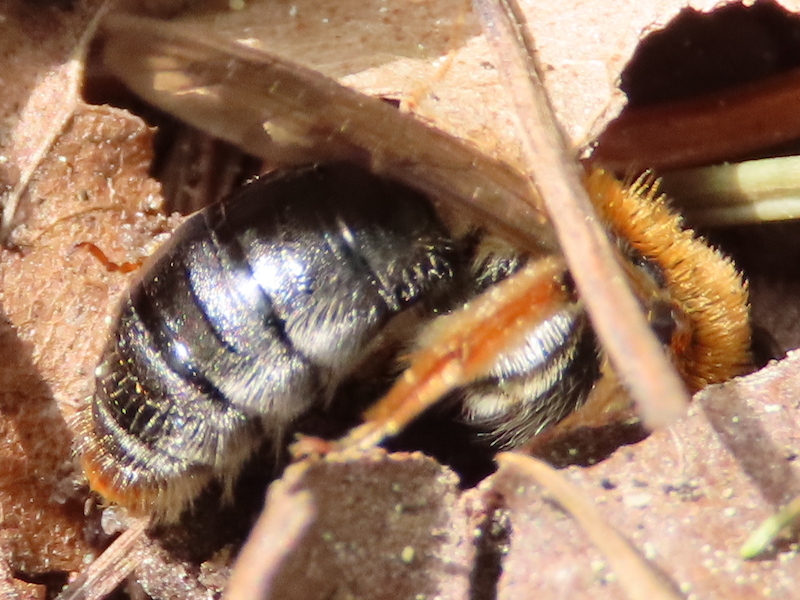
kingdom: Animalia
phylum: Arthropoda
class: Insecta
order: Hymenoptera
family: Andrenidae
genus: Andrena
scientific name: Andrena haemorrhoa
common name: Early mining bee
